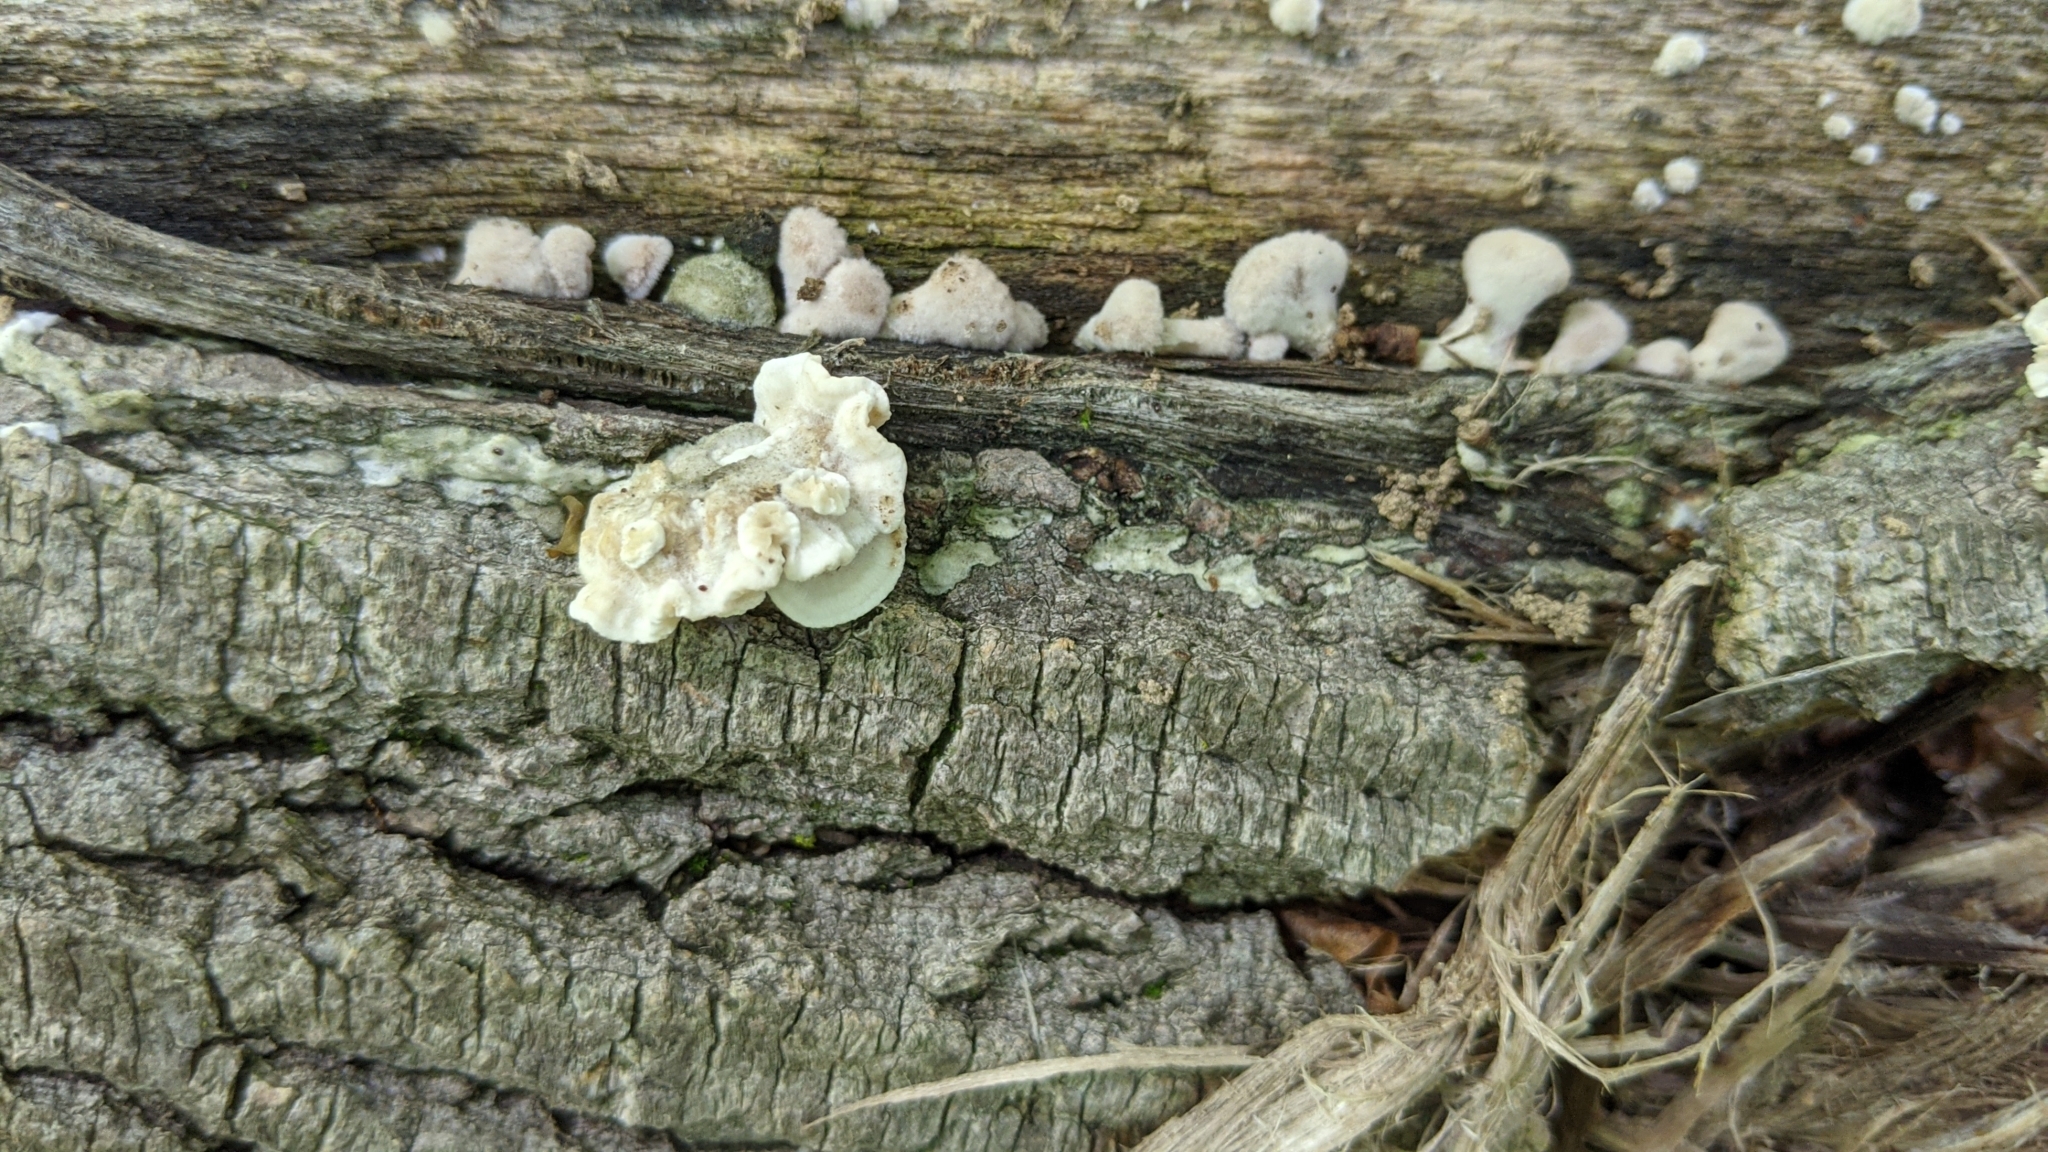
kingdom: Fungi
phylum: Basidiomycota
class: Agaricomycetes
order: Polyporales
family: Polyporaceae
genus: Trametes
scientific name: Trametes hirsuta
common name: Hairy bracket
